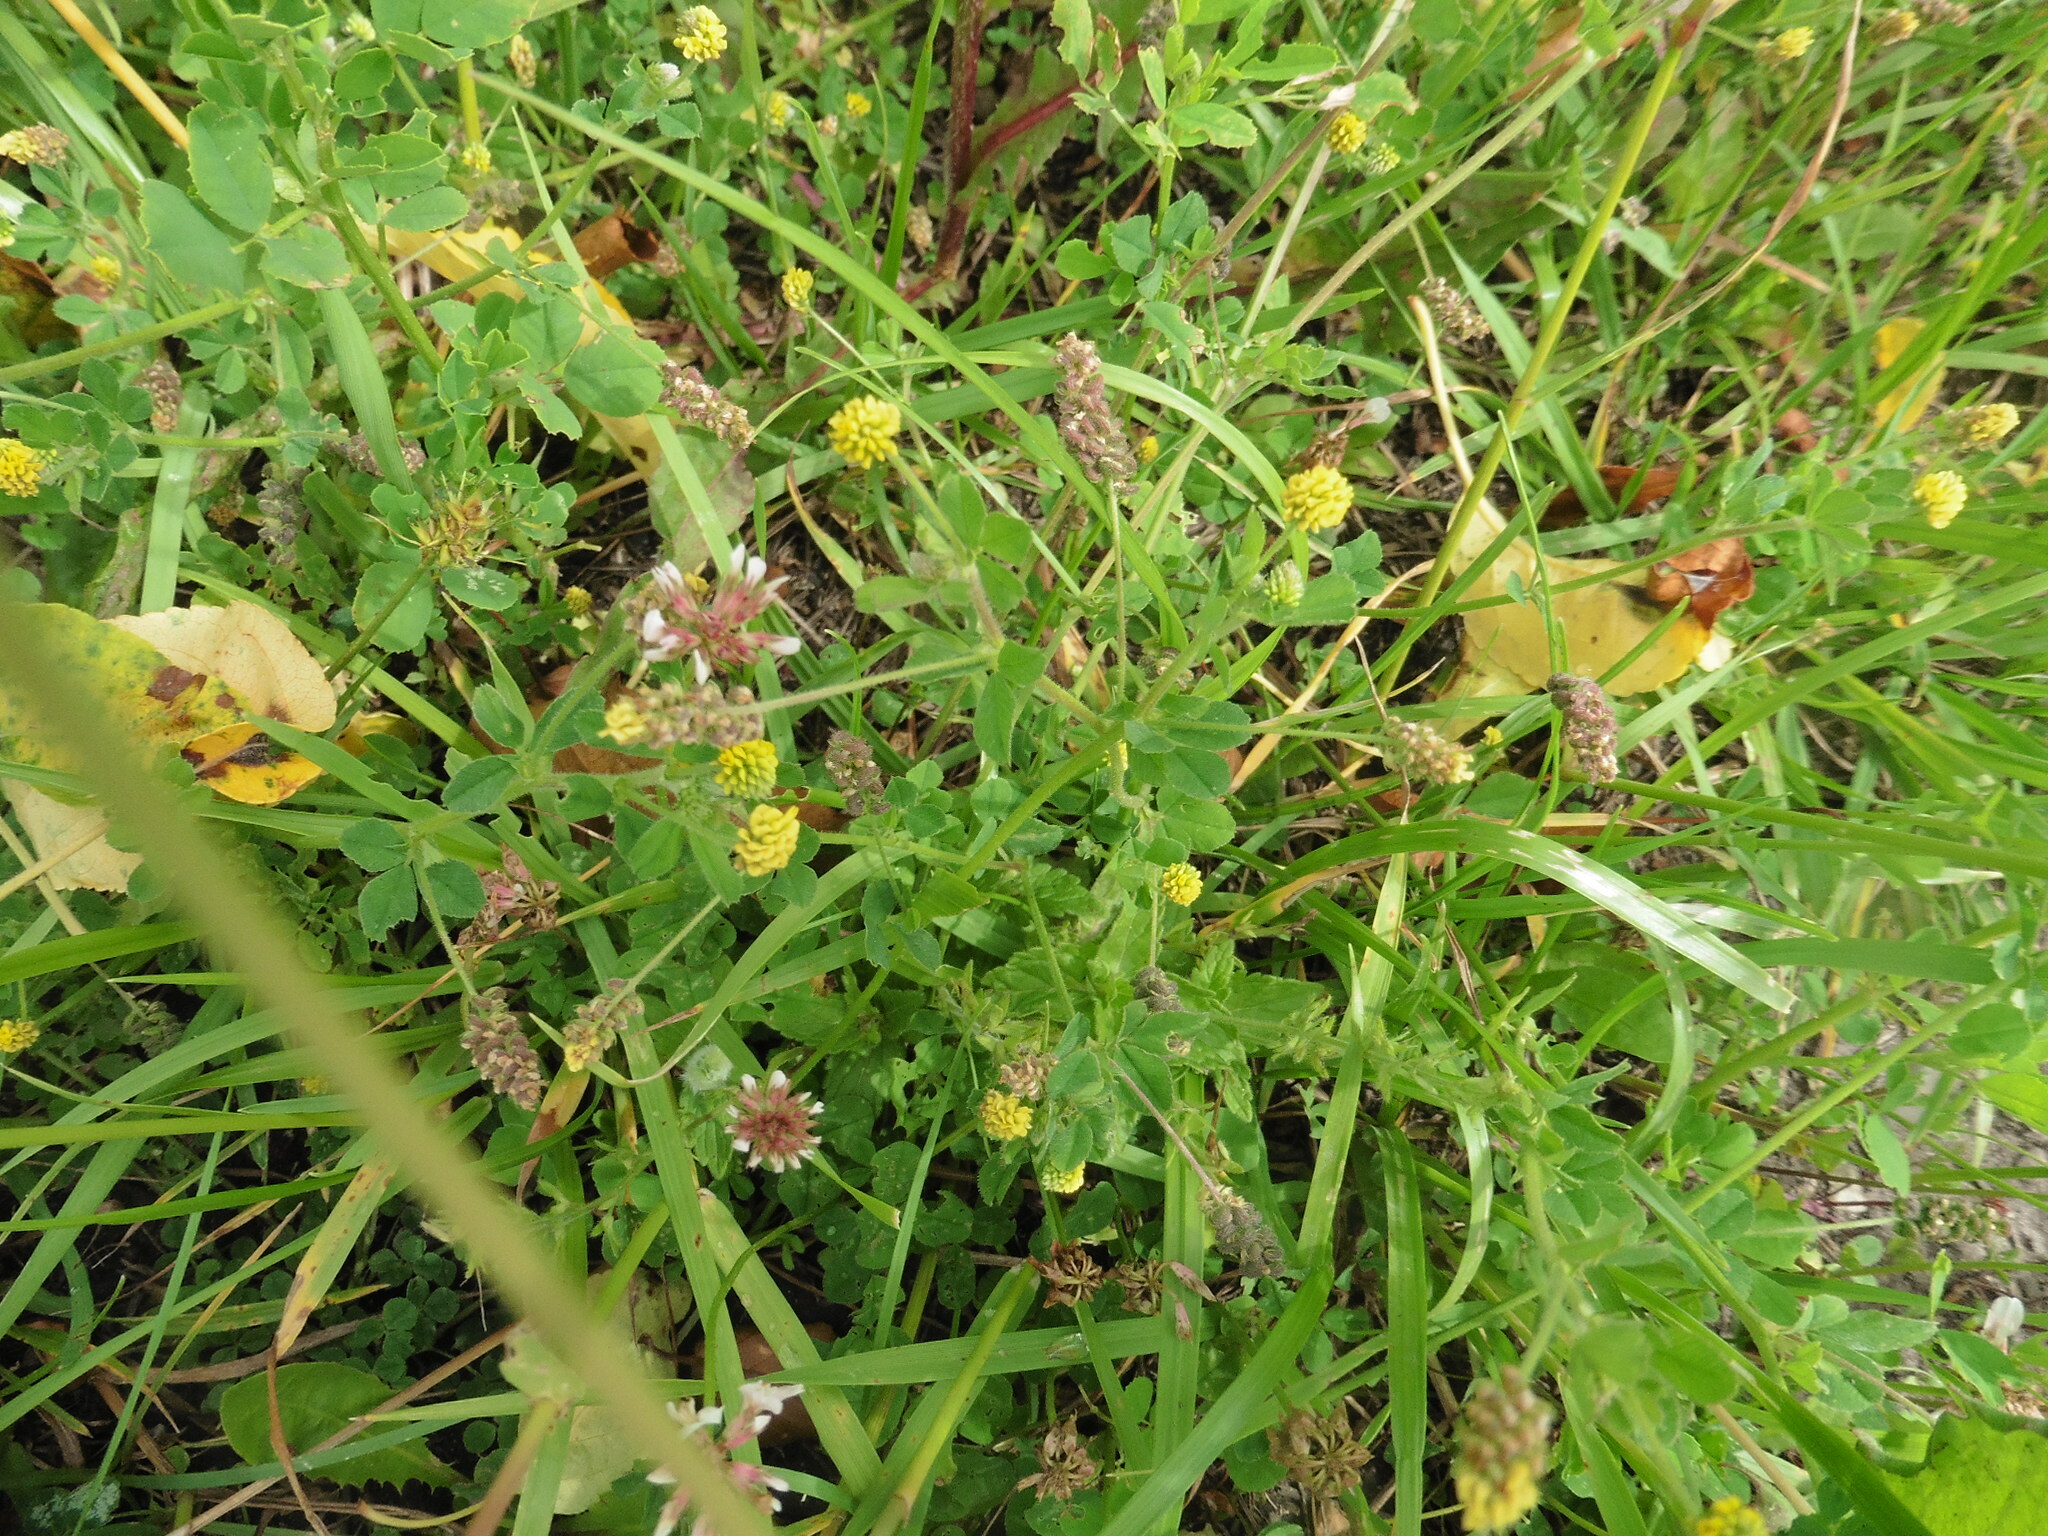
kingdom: Plantae
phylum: Tracheophyta
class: Magnoliopsida
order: Fabales
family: Fabaceae
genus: Medicago
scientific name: Medicago lupulina
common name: Black medick
